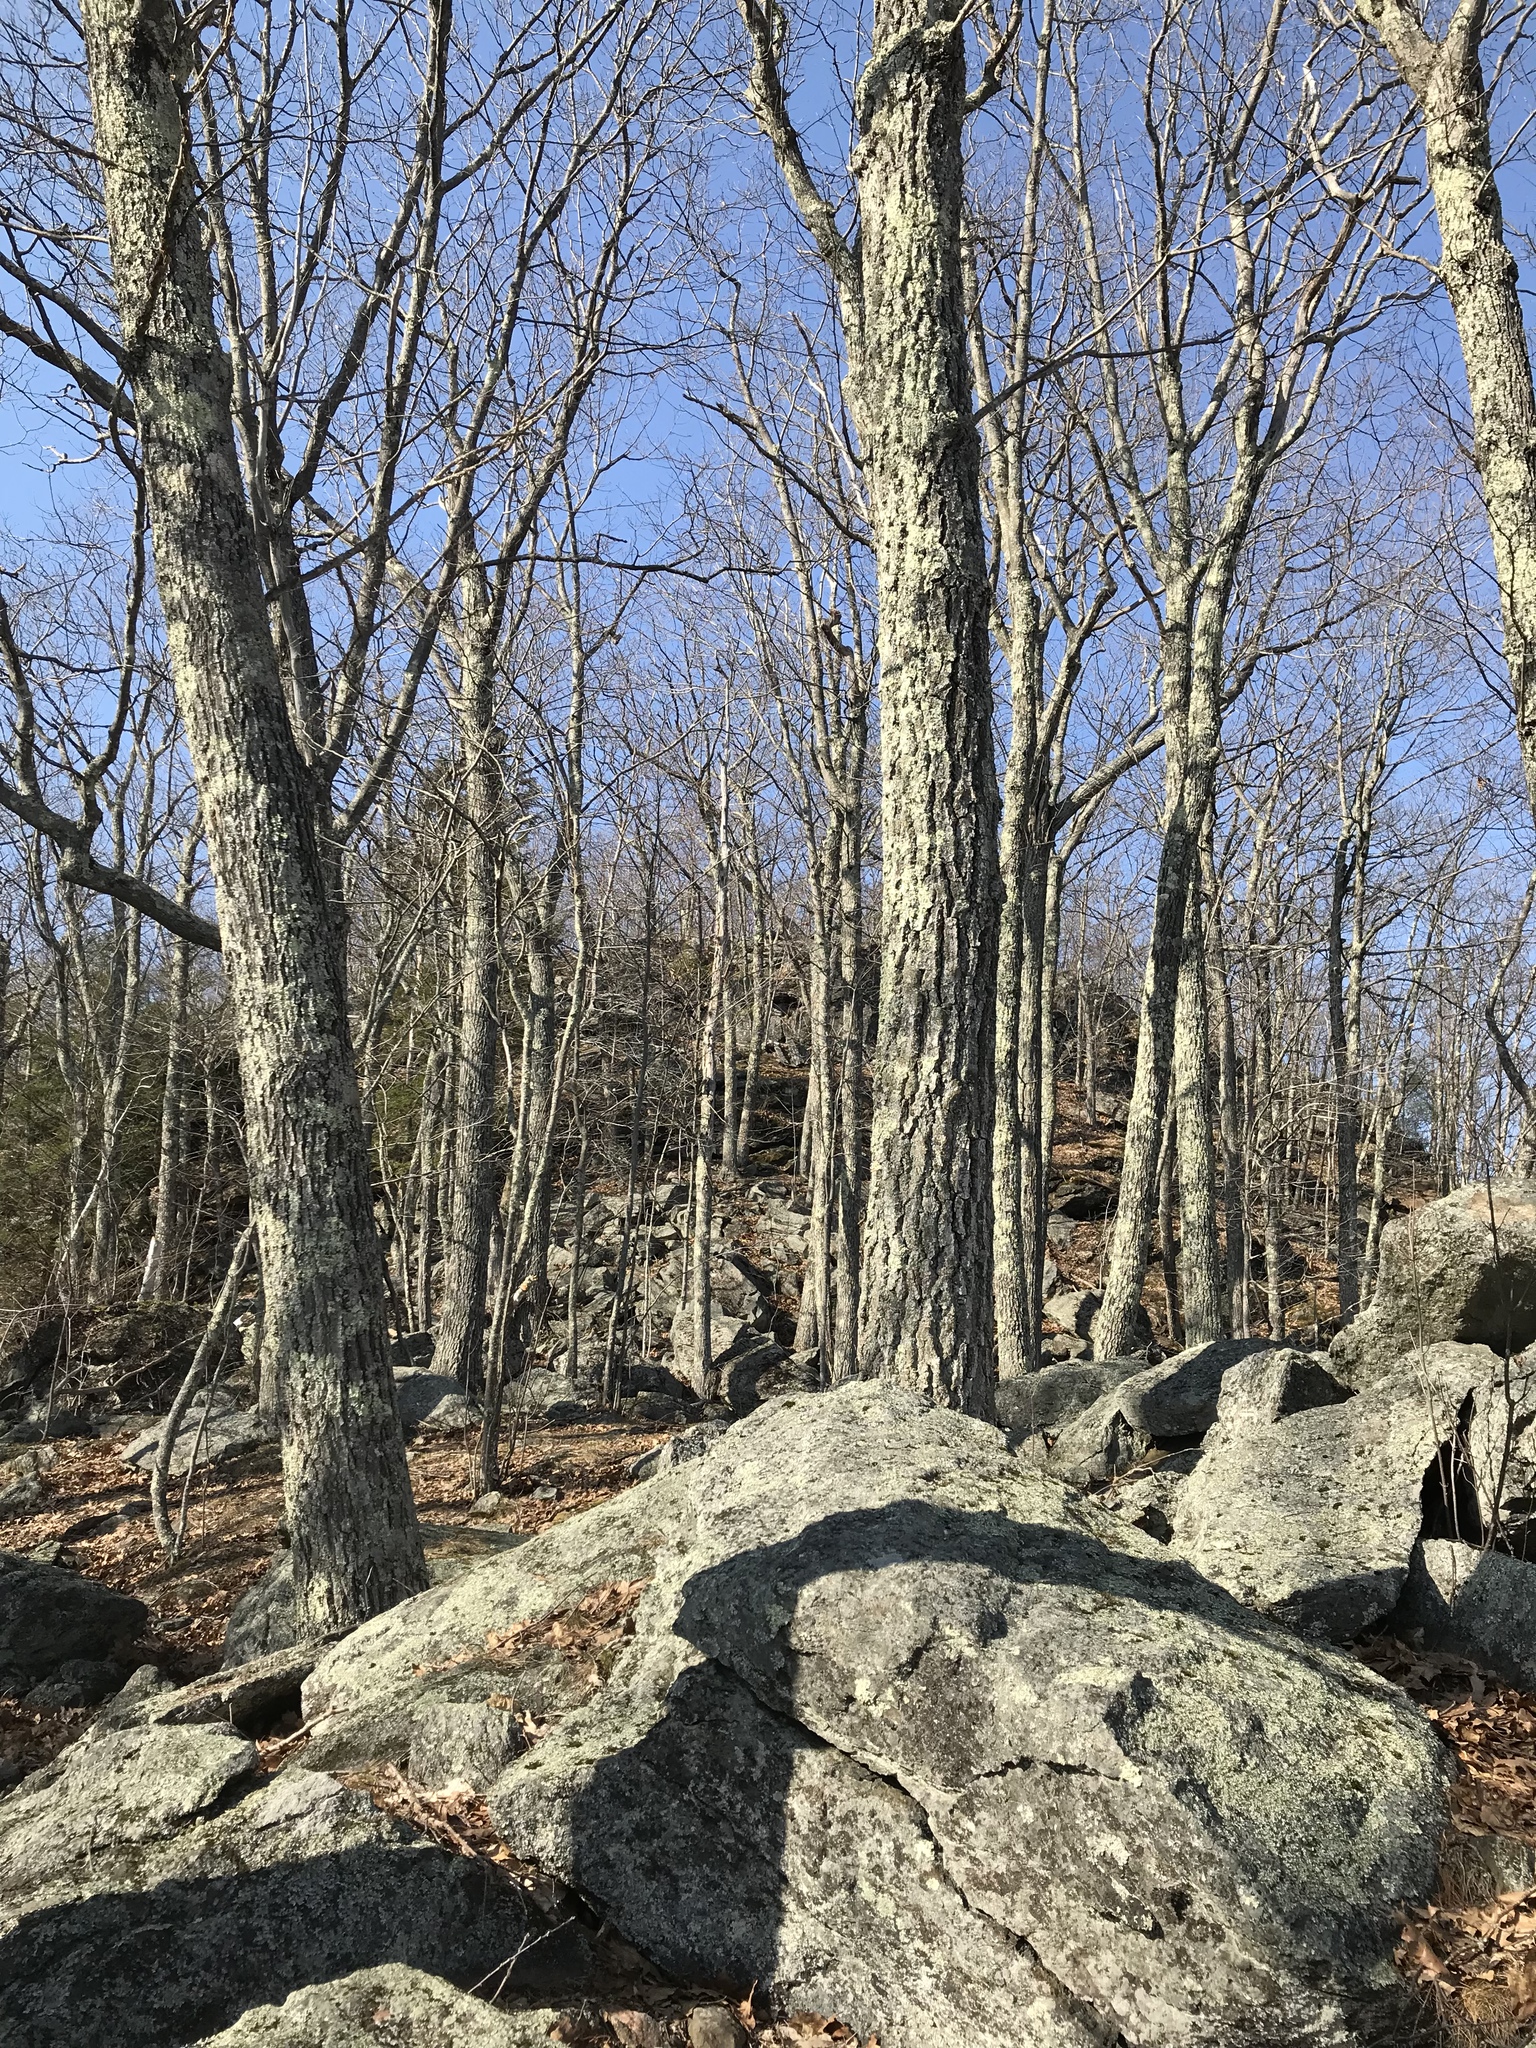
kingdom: Plantae
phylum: Tracheophyta
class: Magnoliopsida
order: Fagales
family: Fagaceae
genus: Quercus
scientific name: Quercus rubra
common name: Red oak
